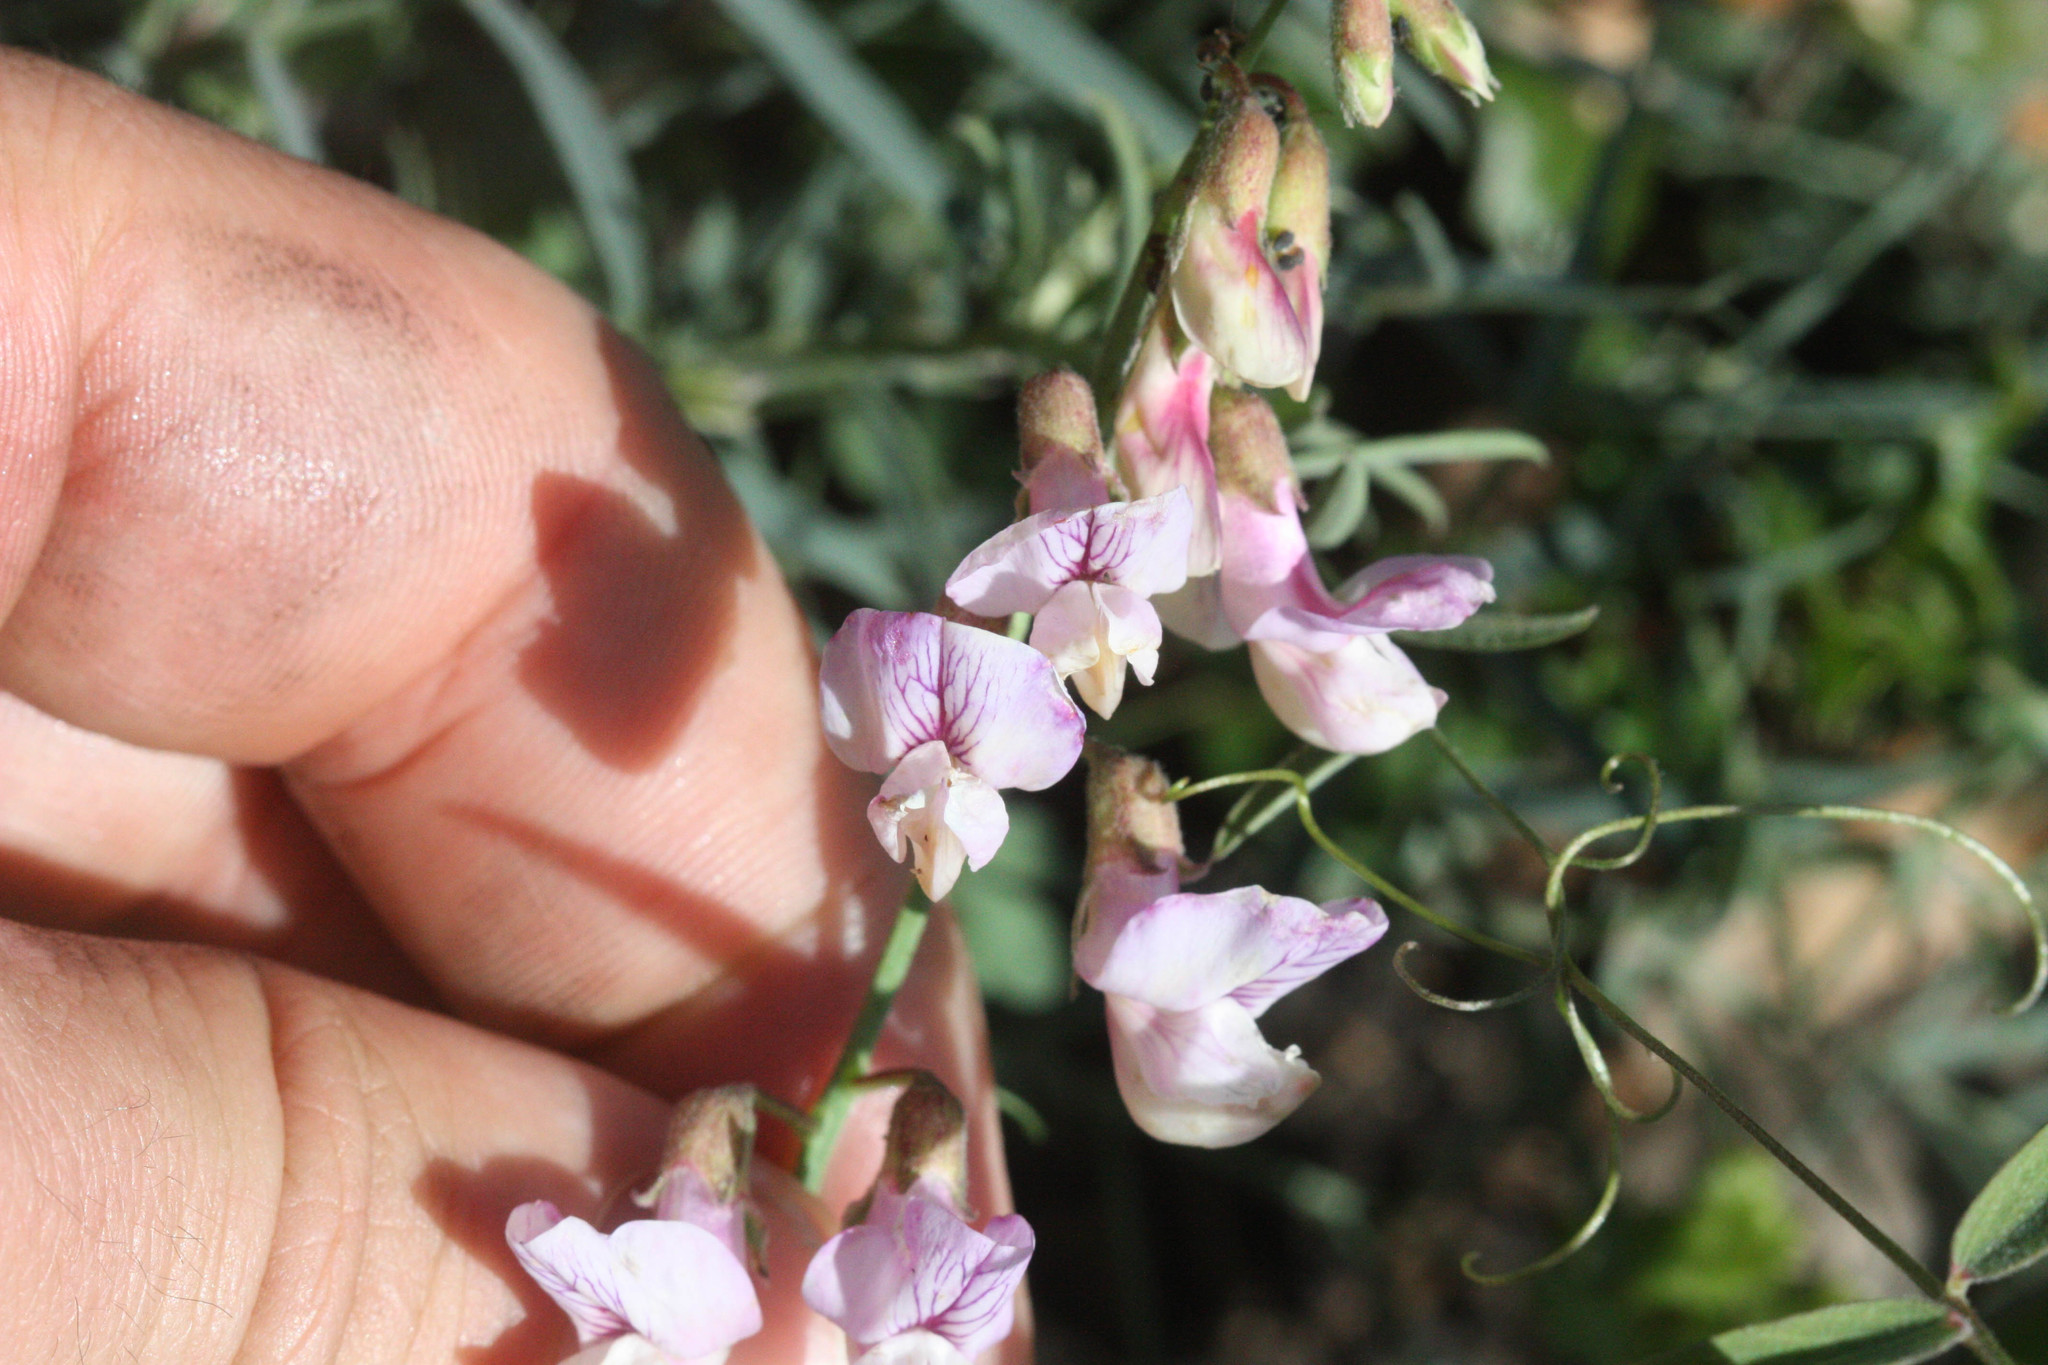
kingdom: Plantae
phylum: Tracheophyta
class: Magnoliopsida
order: Fabales
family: Fabaceae
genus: Lathyrus
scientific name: Lathyrus vestitus
